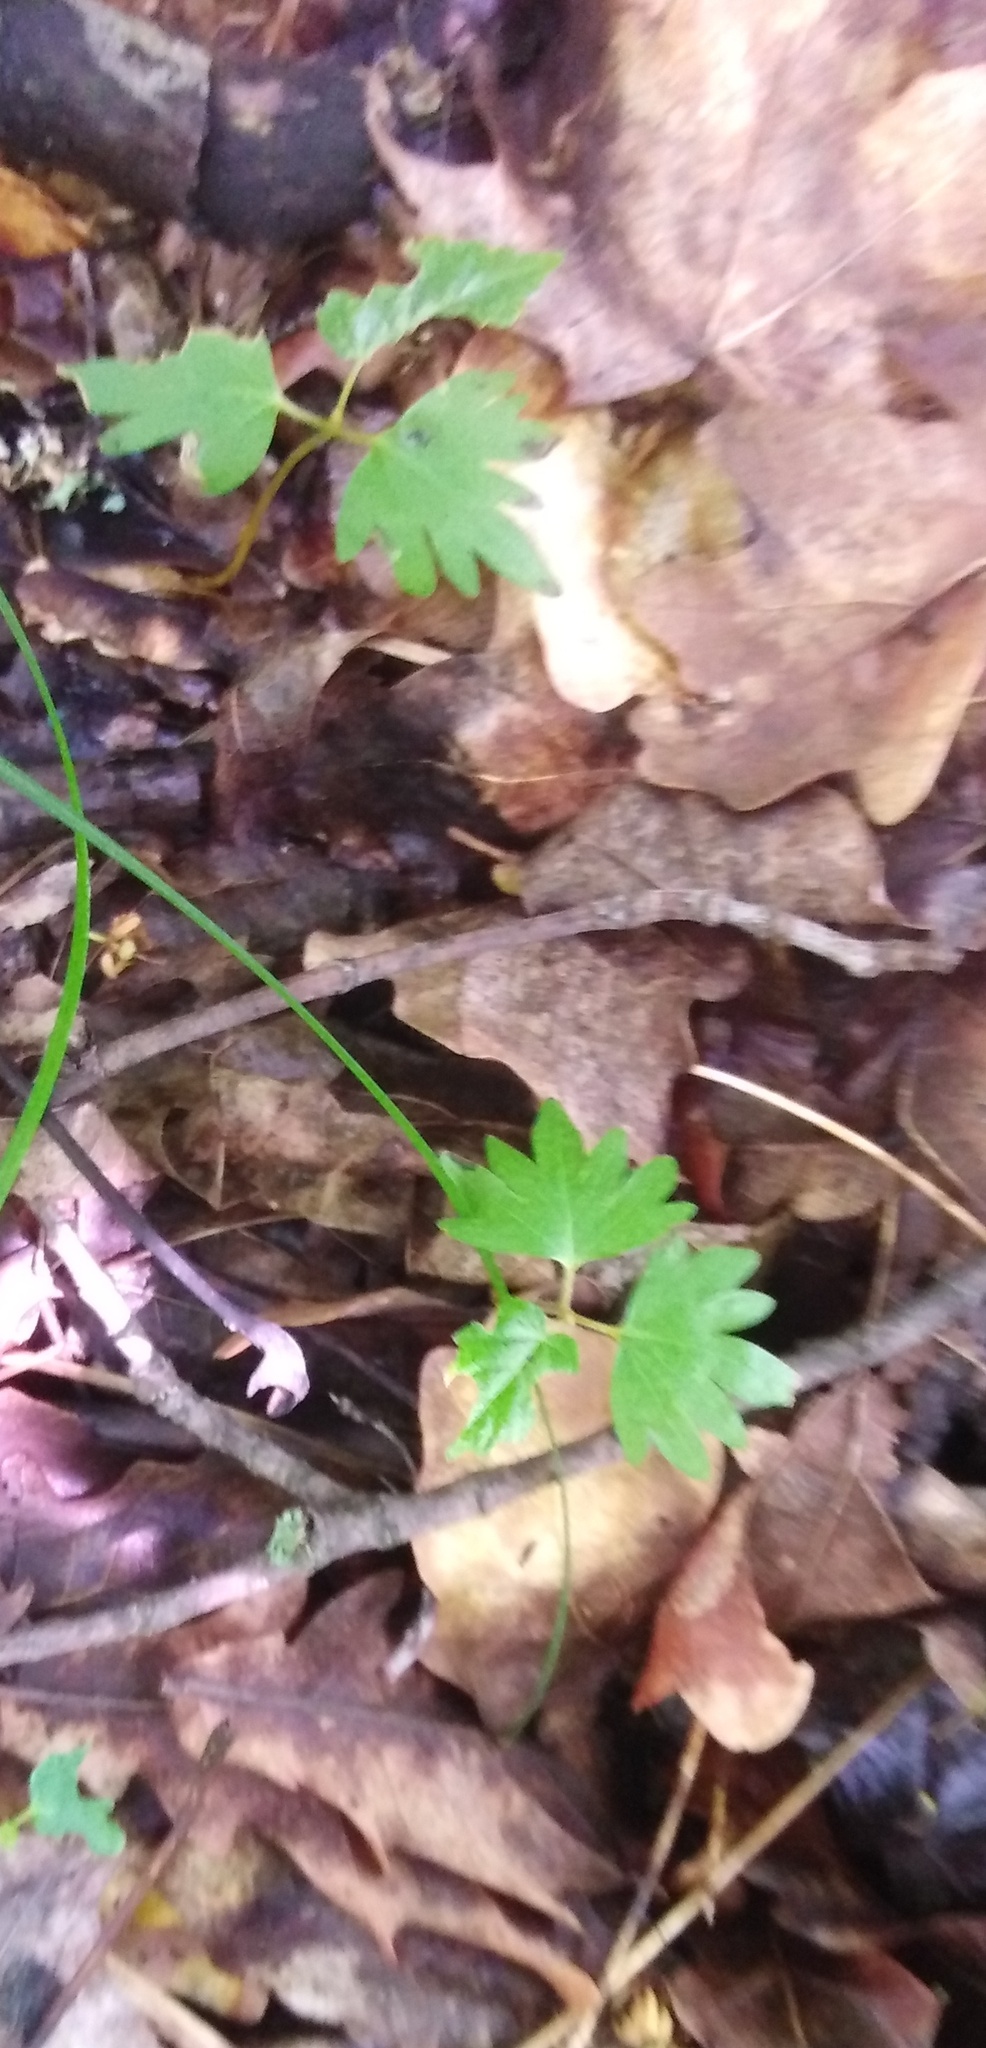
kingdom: Plantae
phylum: Tracheophyta
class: Magnoliopsida
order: Malvales
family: Malvaceae
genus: Tilia
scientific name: Tilia cordata
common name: Small-leaved lime
